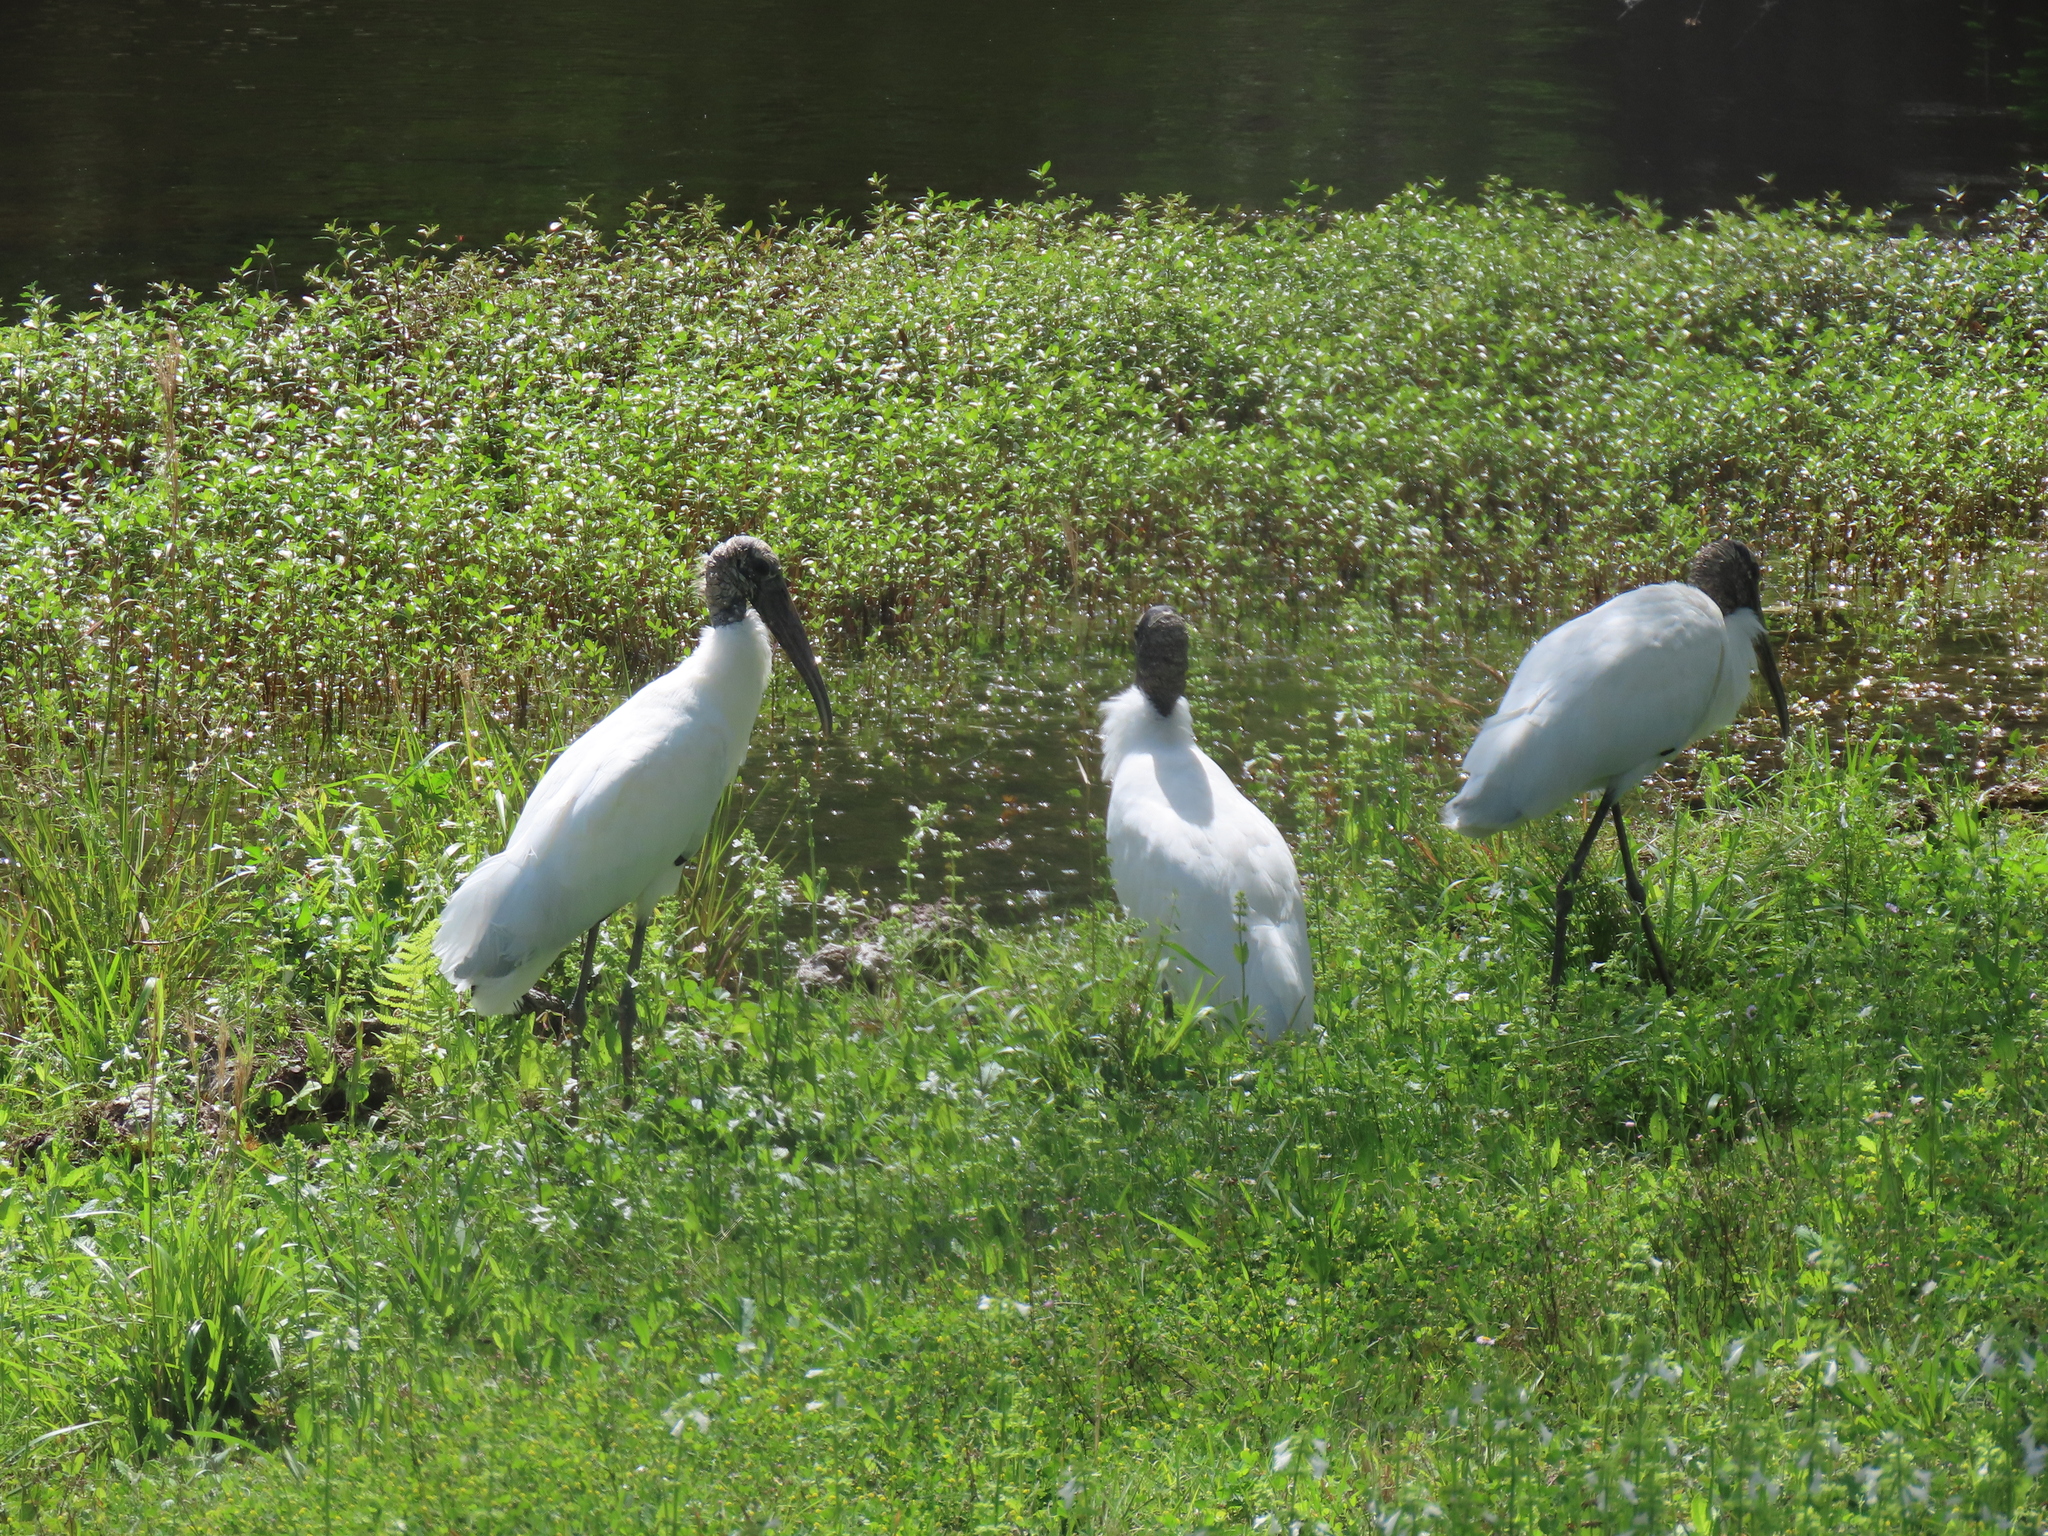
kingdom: Animalia
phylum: Chordata
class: Aves
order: Ciconiiformes
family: Ciconiidae
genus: Mycteria
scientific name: Mycteria americana
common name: Wood stork
